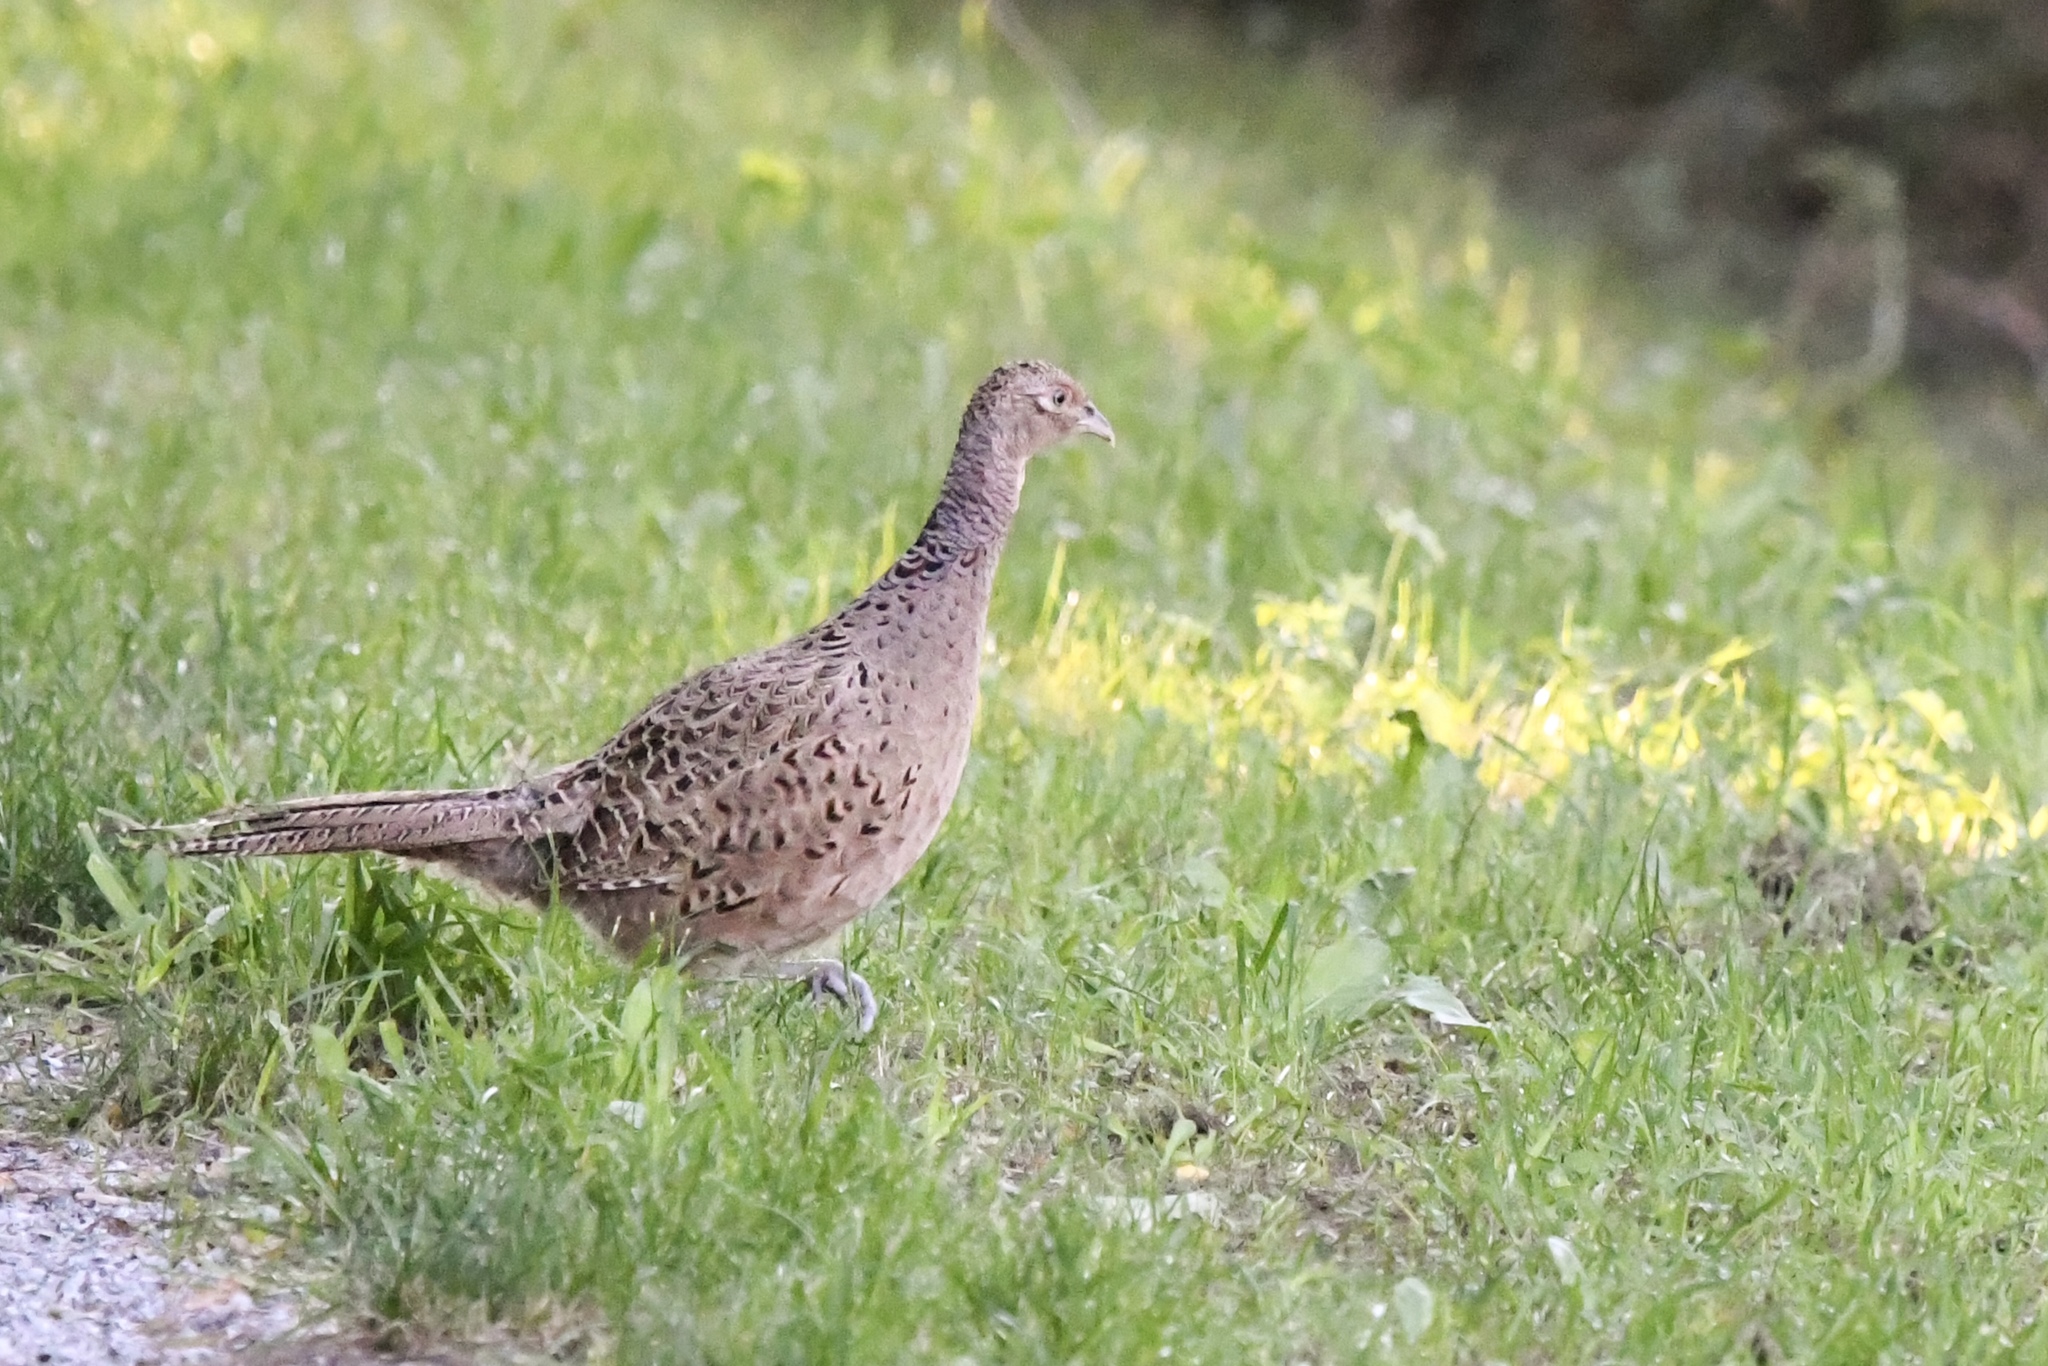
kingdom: Animalia
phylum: Chordata
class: Aves
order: Galliformes
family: Phasianidae
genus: Phasianus
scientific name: Phasianus colchicus
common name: Common pheasant
